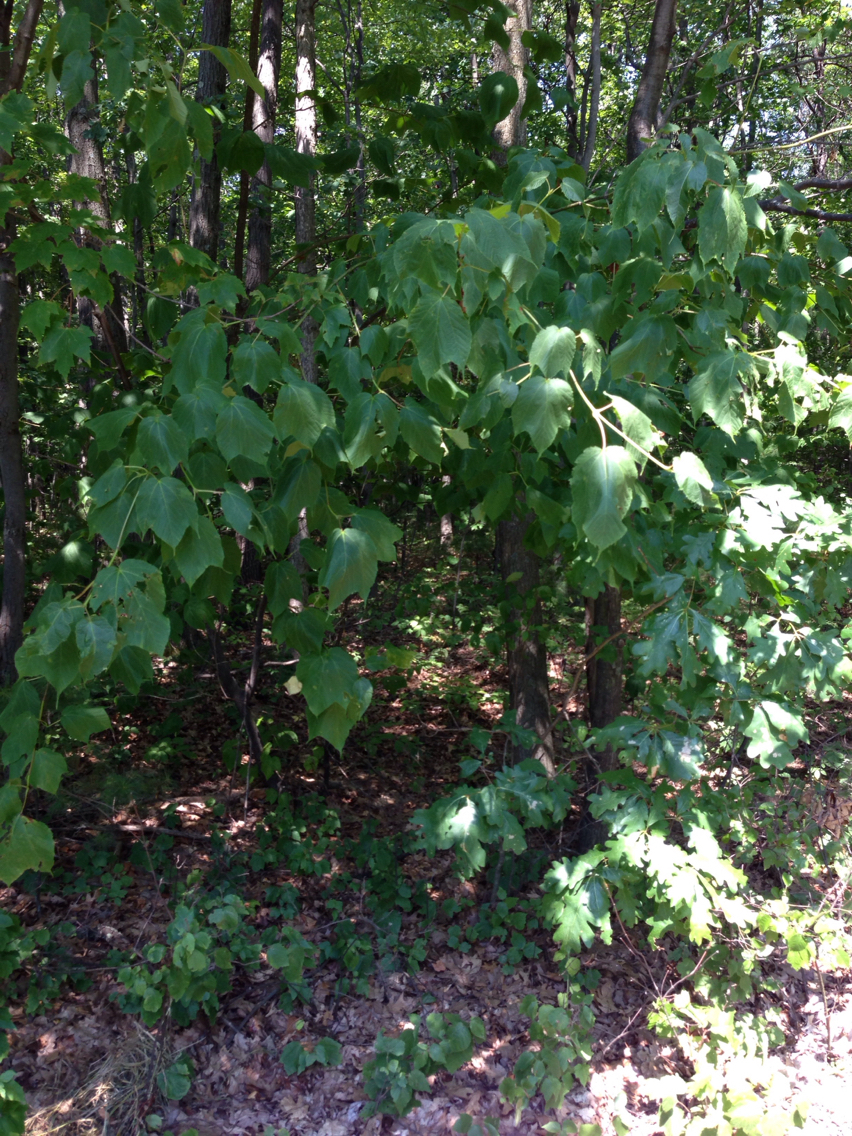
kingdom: Plantae
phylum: Tracheophyta
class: Magnoliopsida
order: Sapindales
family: Sapindaceae
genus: Acer
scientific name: Acer pensylvanicum
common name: Moosewood
